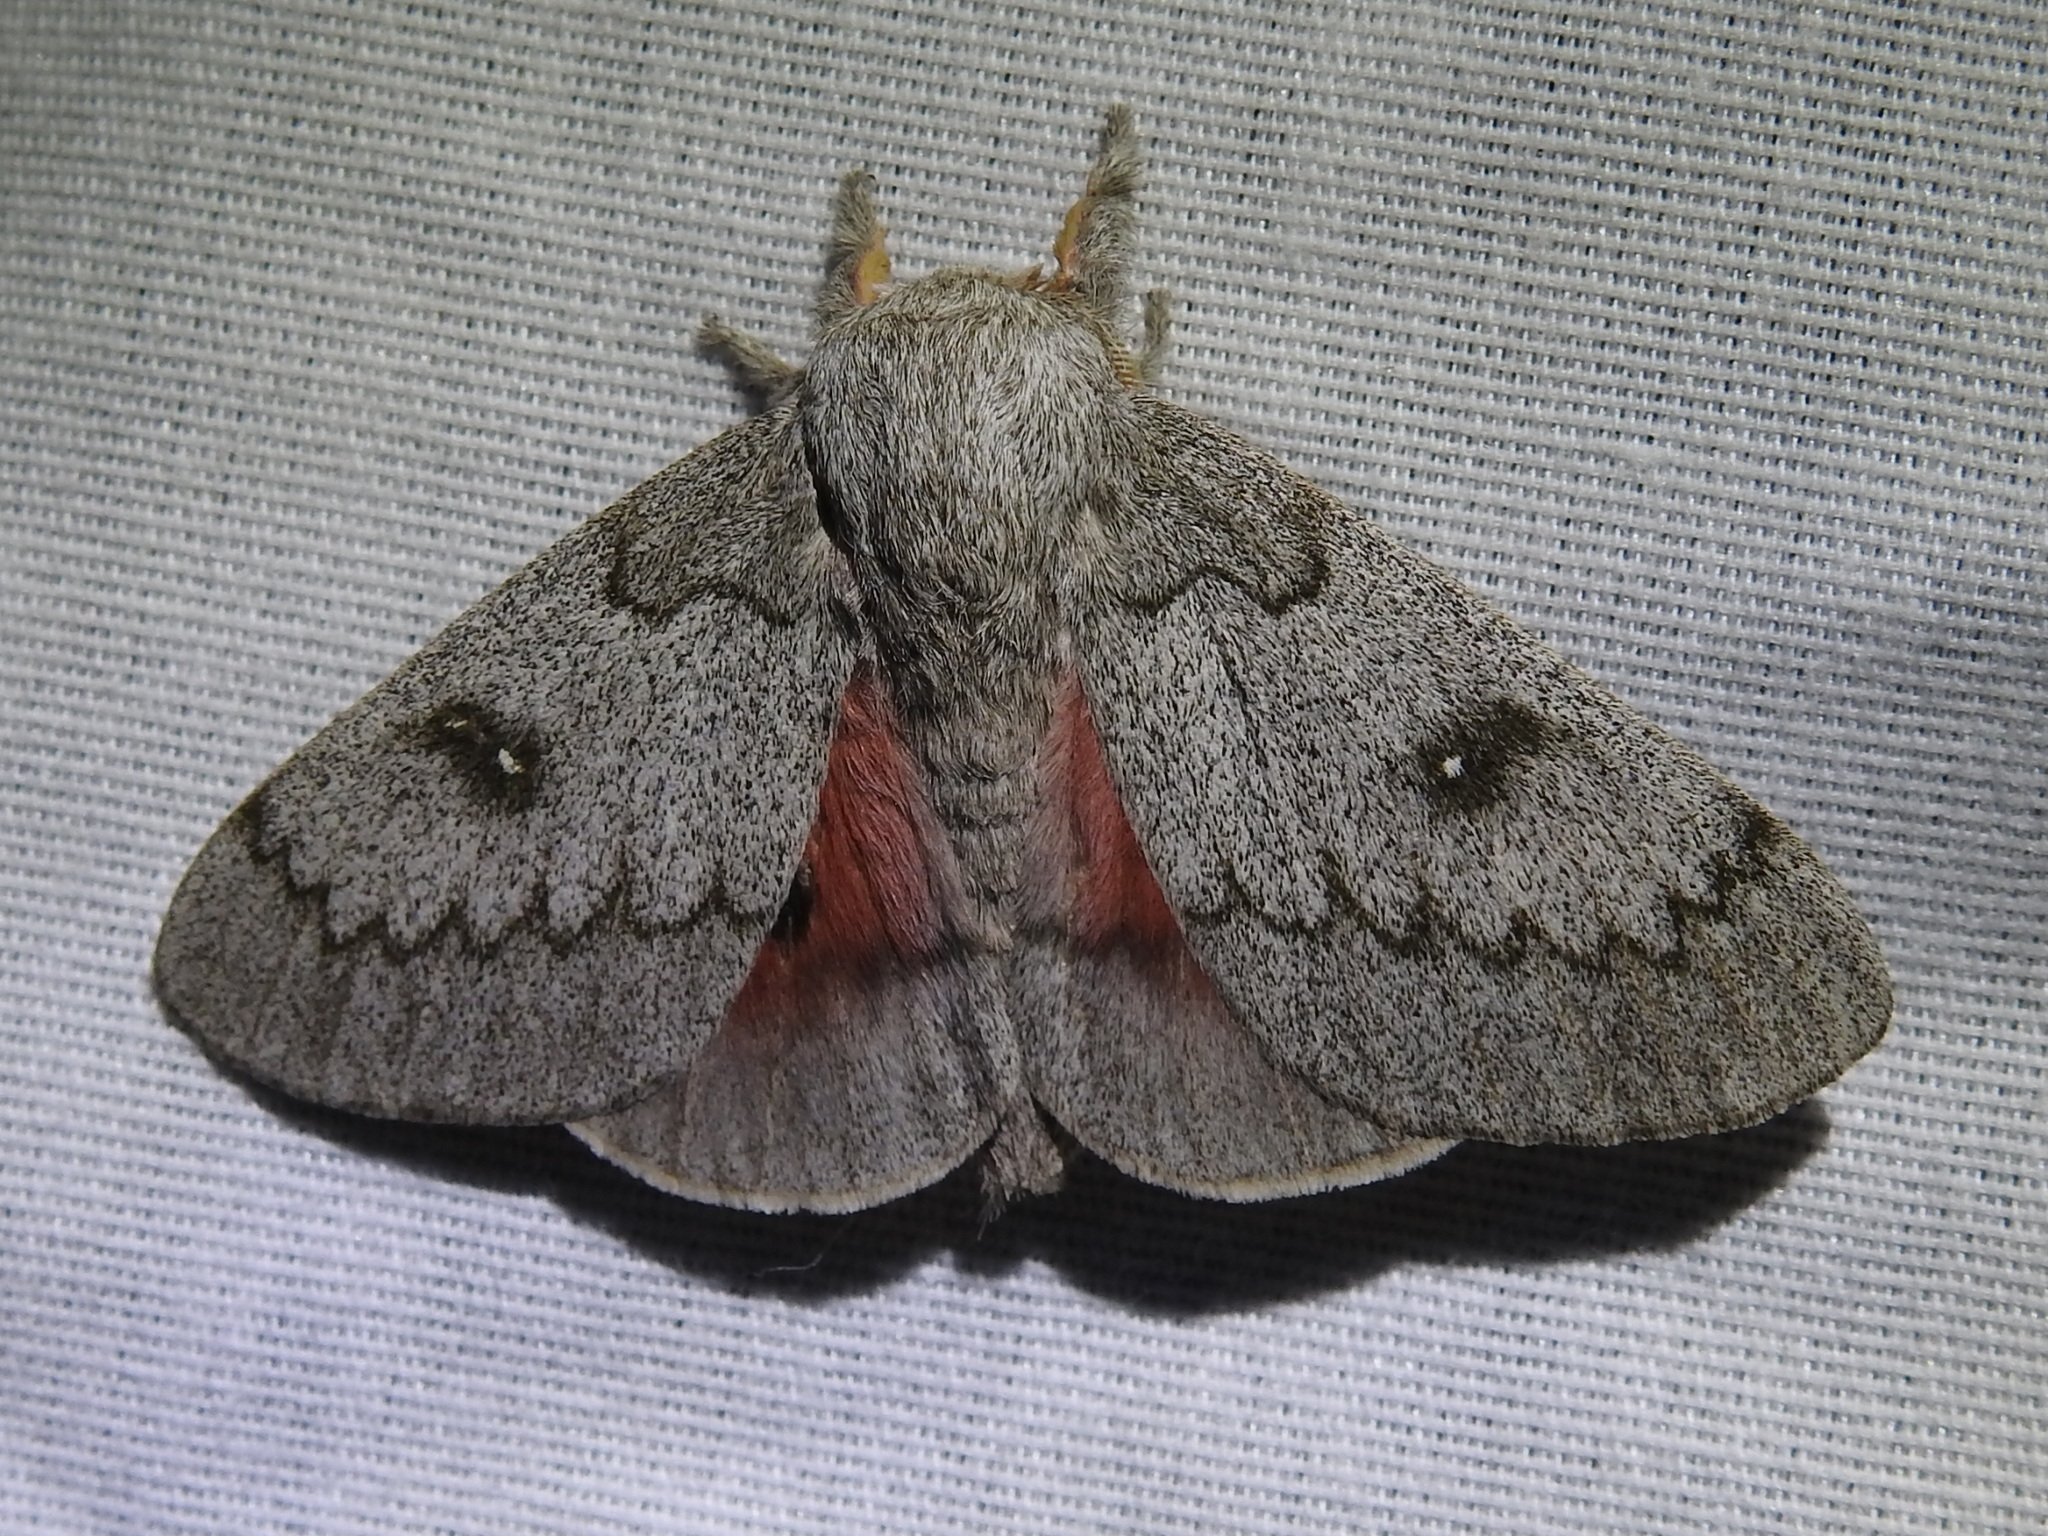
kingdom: Animalia
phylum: Arthropoda
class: Insecta
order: Lepidoptera
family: Saturniidae
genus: Syssphinx
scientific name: Syssphinx heiligbrodti
